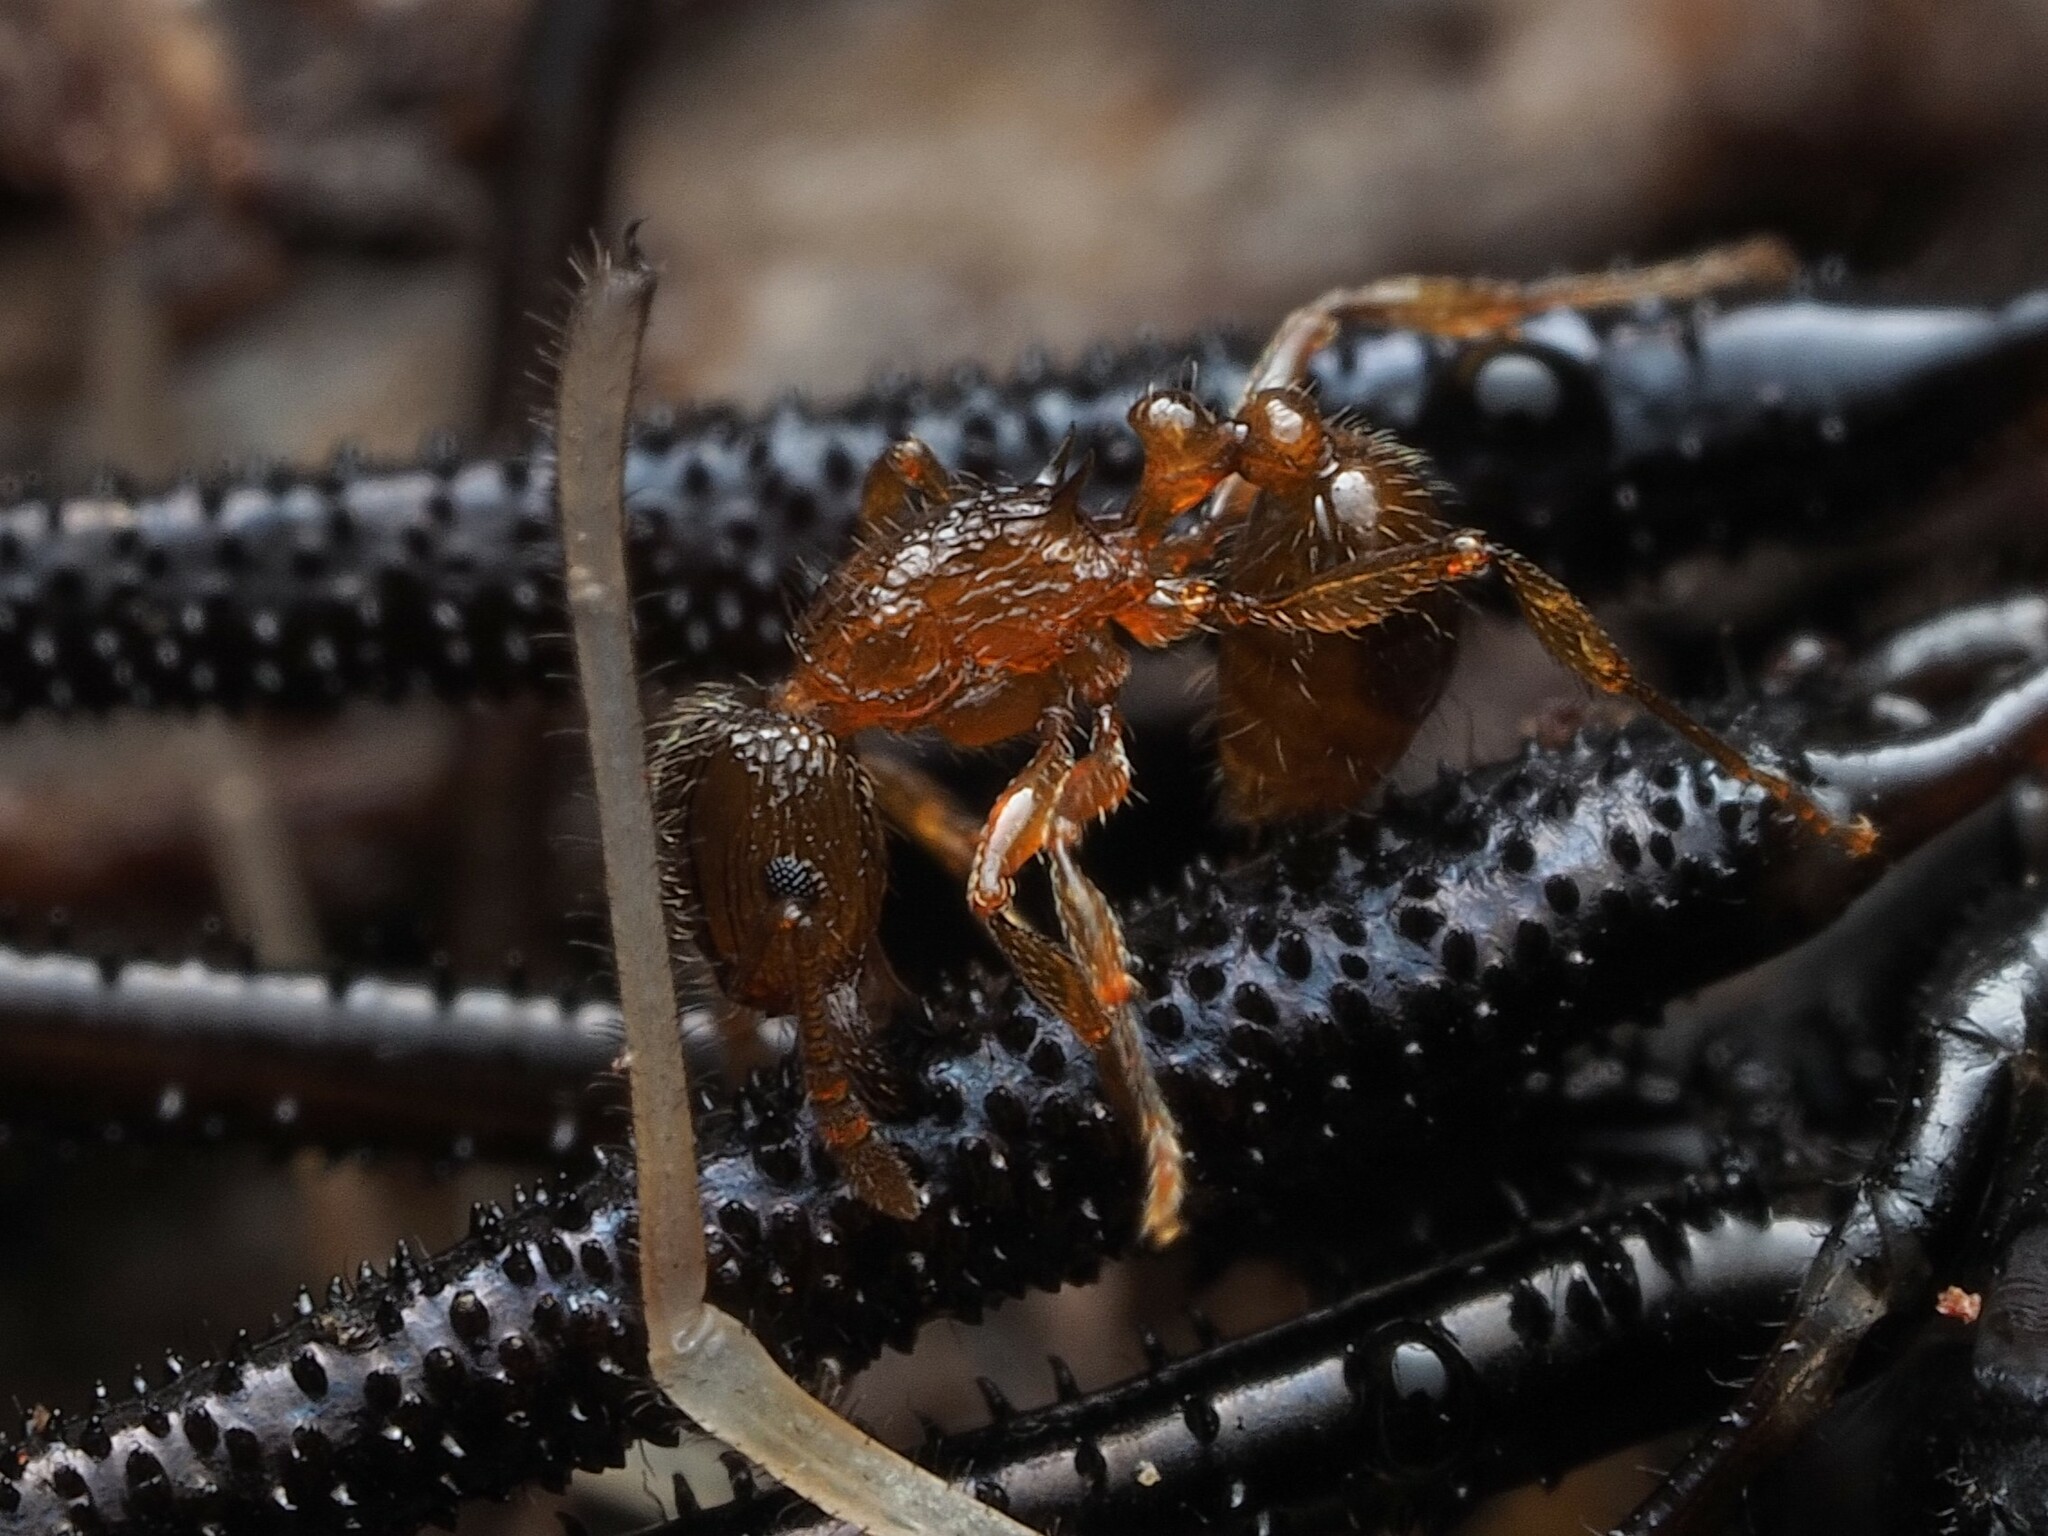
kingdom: Animalia
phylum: Arthropoda
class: Insecta
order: Hymenoptera
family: Formicidae
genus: Tetramorium
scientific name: Tetramorium grassii
